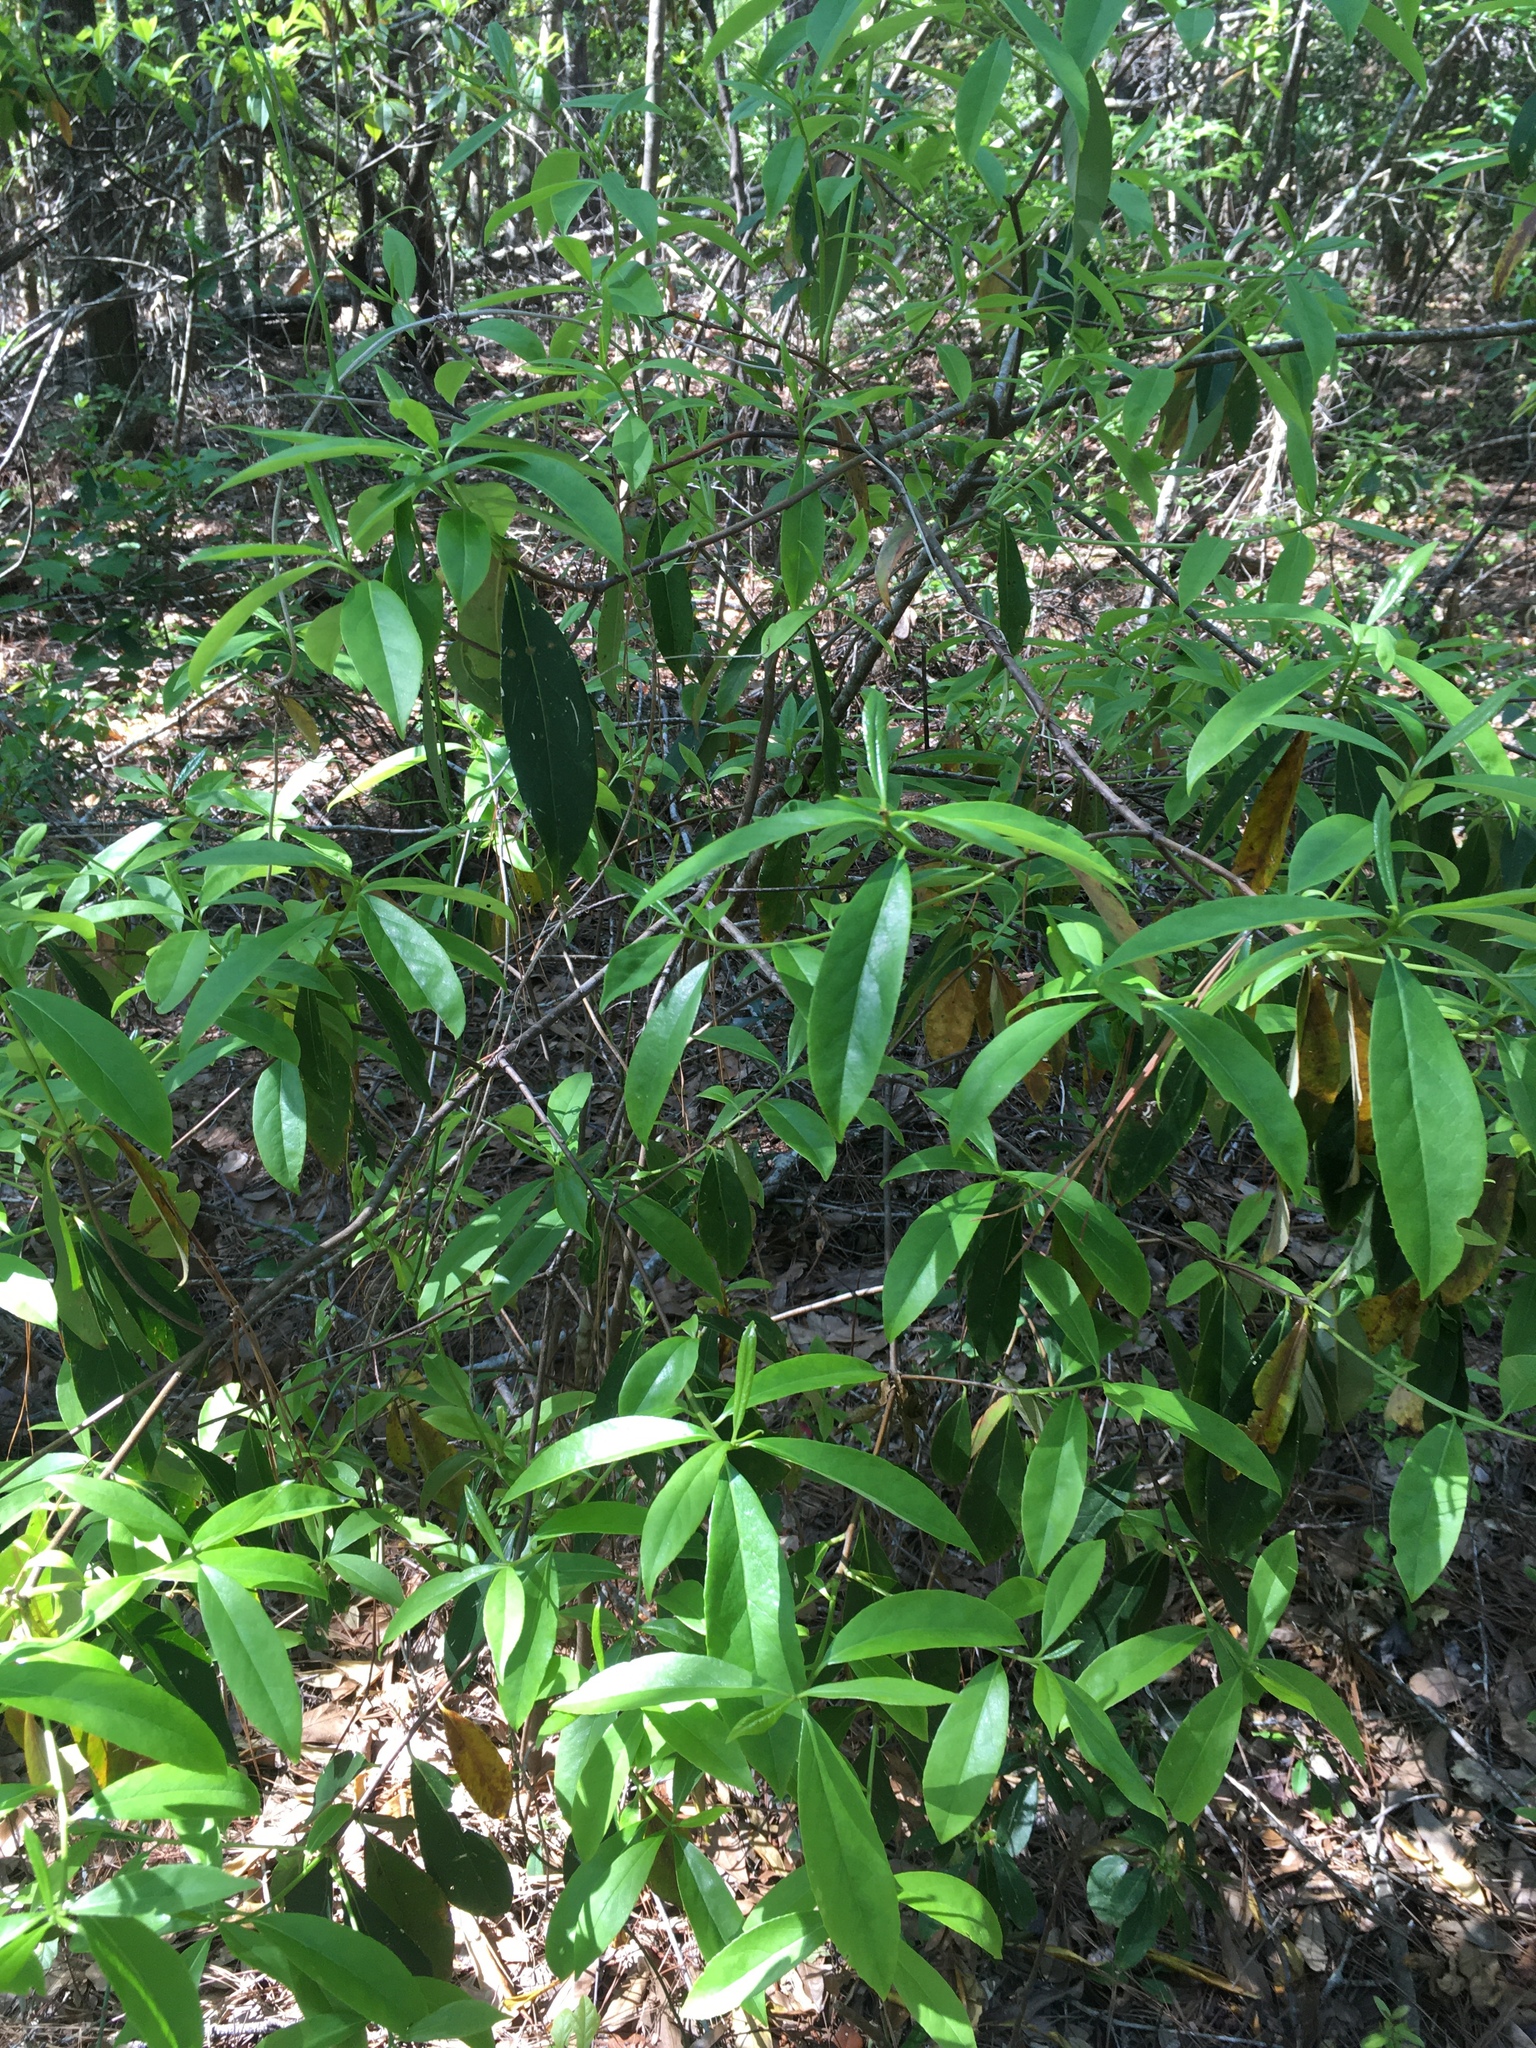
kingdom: Plantae
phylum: Tracheophyta
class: Magnoliopsida
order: Ericales
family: Symplocaceae
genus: Symplocos
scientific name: Symplocos tinctoria
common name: Horse-sugar
